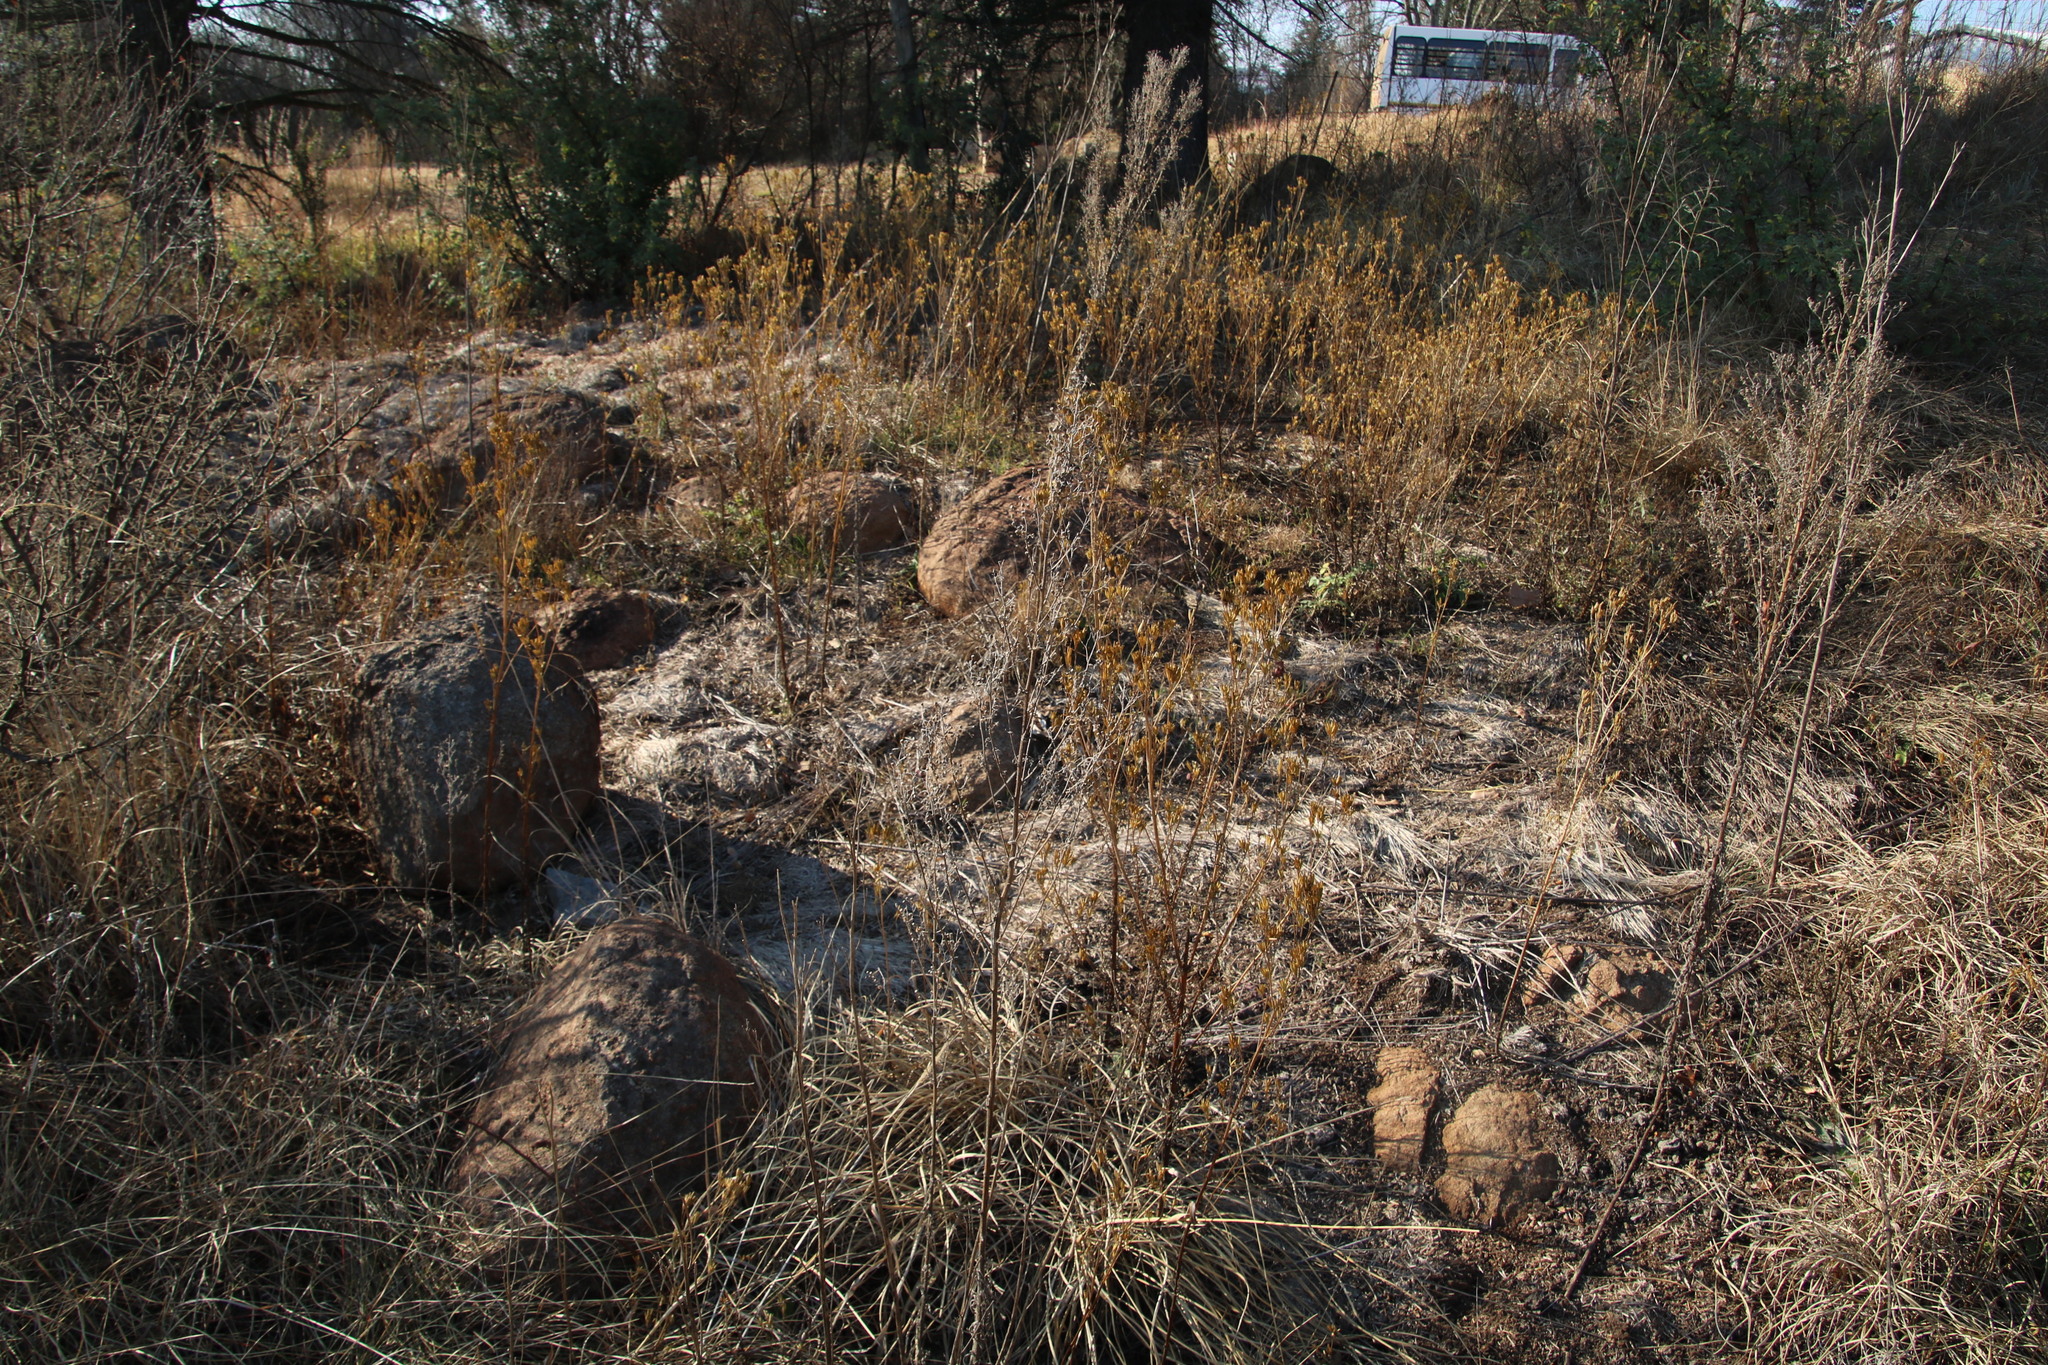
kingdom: Plantae
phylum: Tracheophyta
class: Magnoliopsida
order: Asterales
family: Asteraceae
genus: Tagetes
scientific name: Tagetes minuta
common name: Muster john henry
